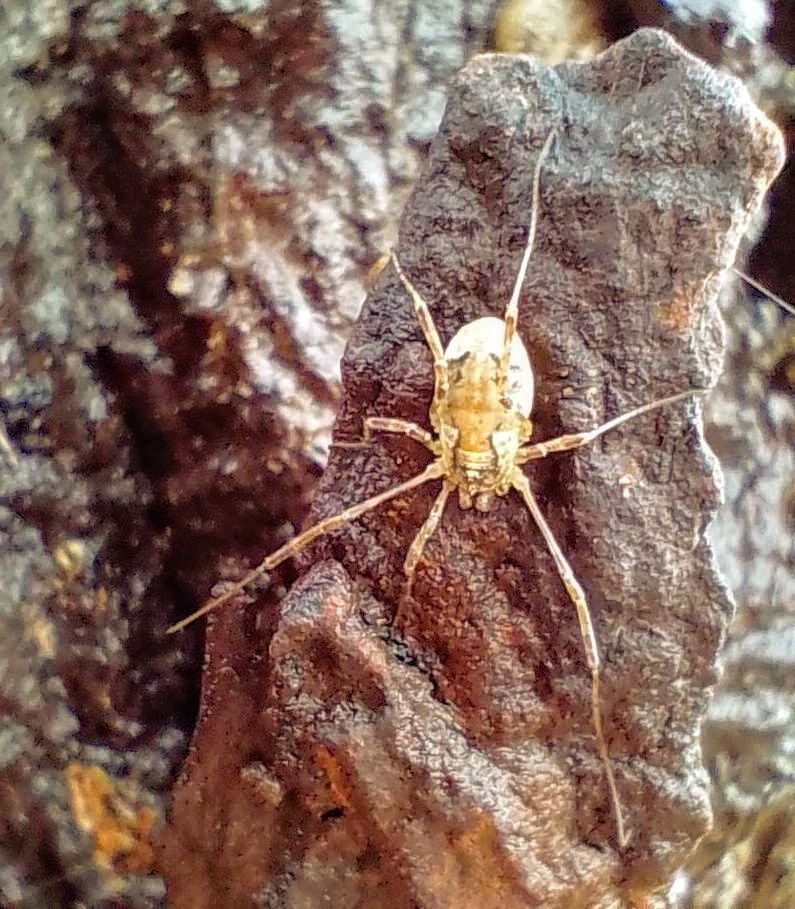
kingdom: Animalia
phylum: Arthropoda
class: Arachnida
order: Opiliones
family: Phalangiidae
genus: Paroligolophus
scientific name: Paroligolophus agrestis
